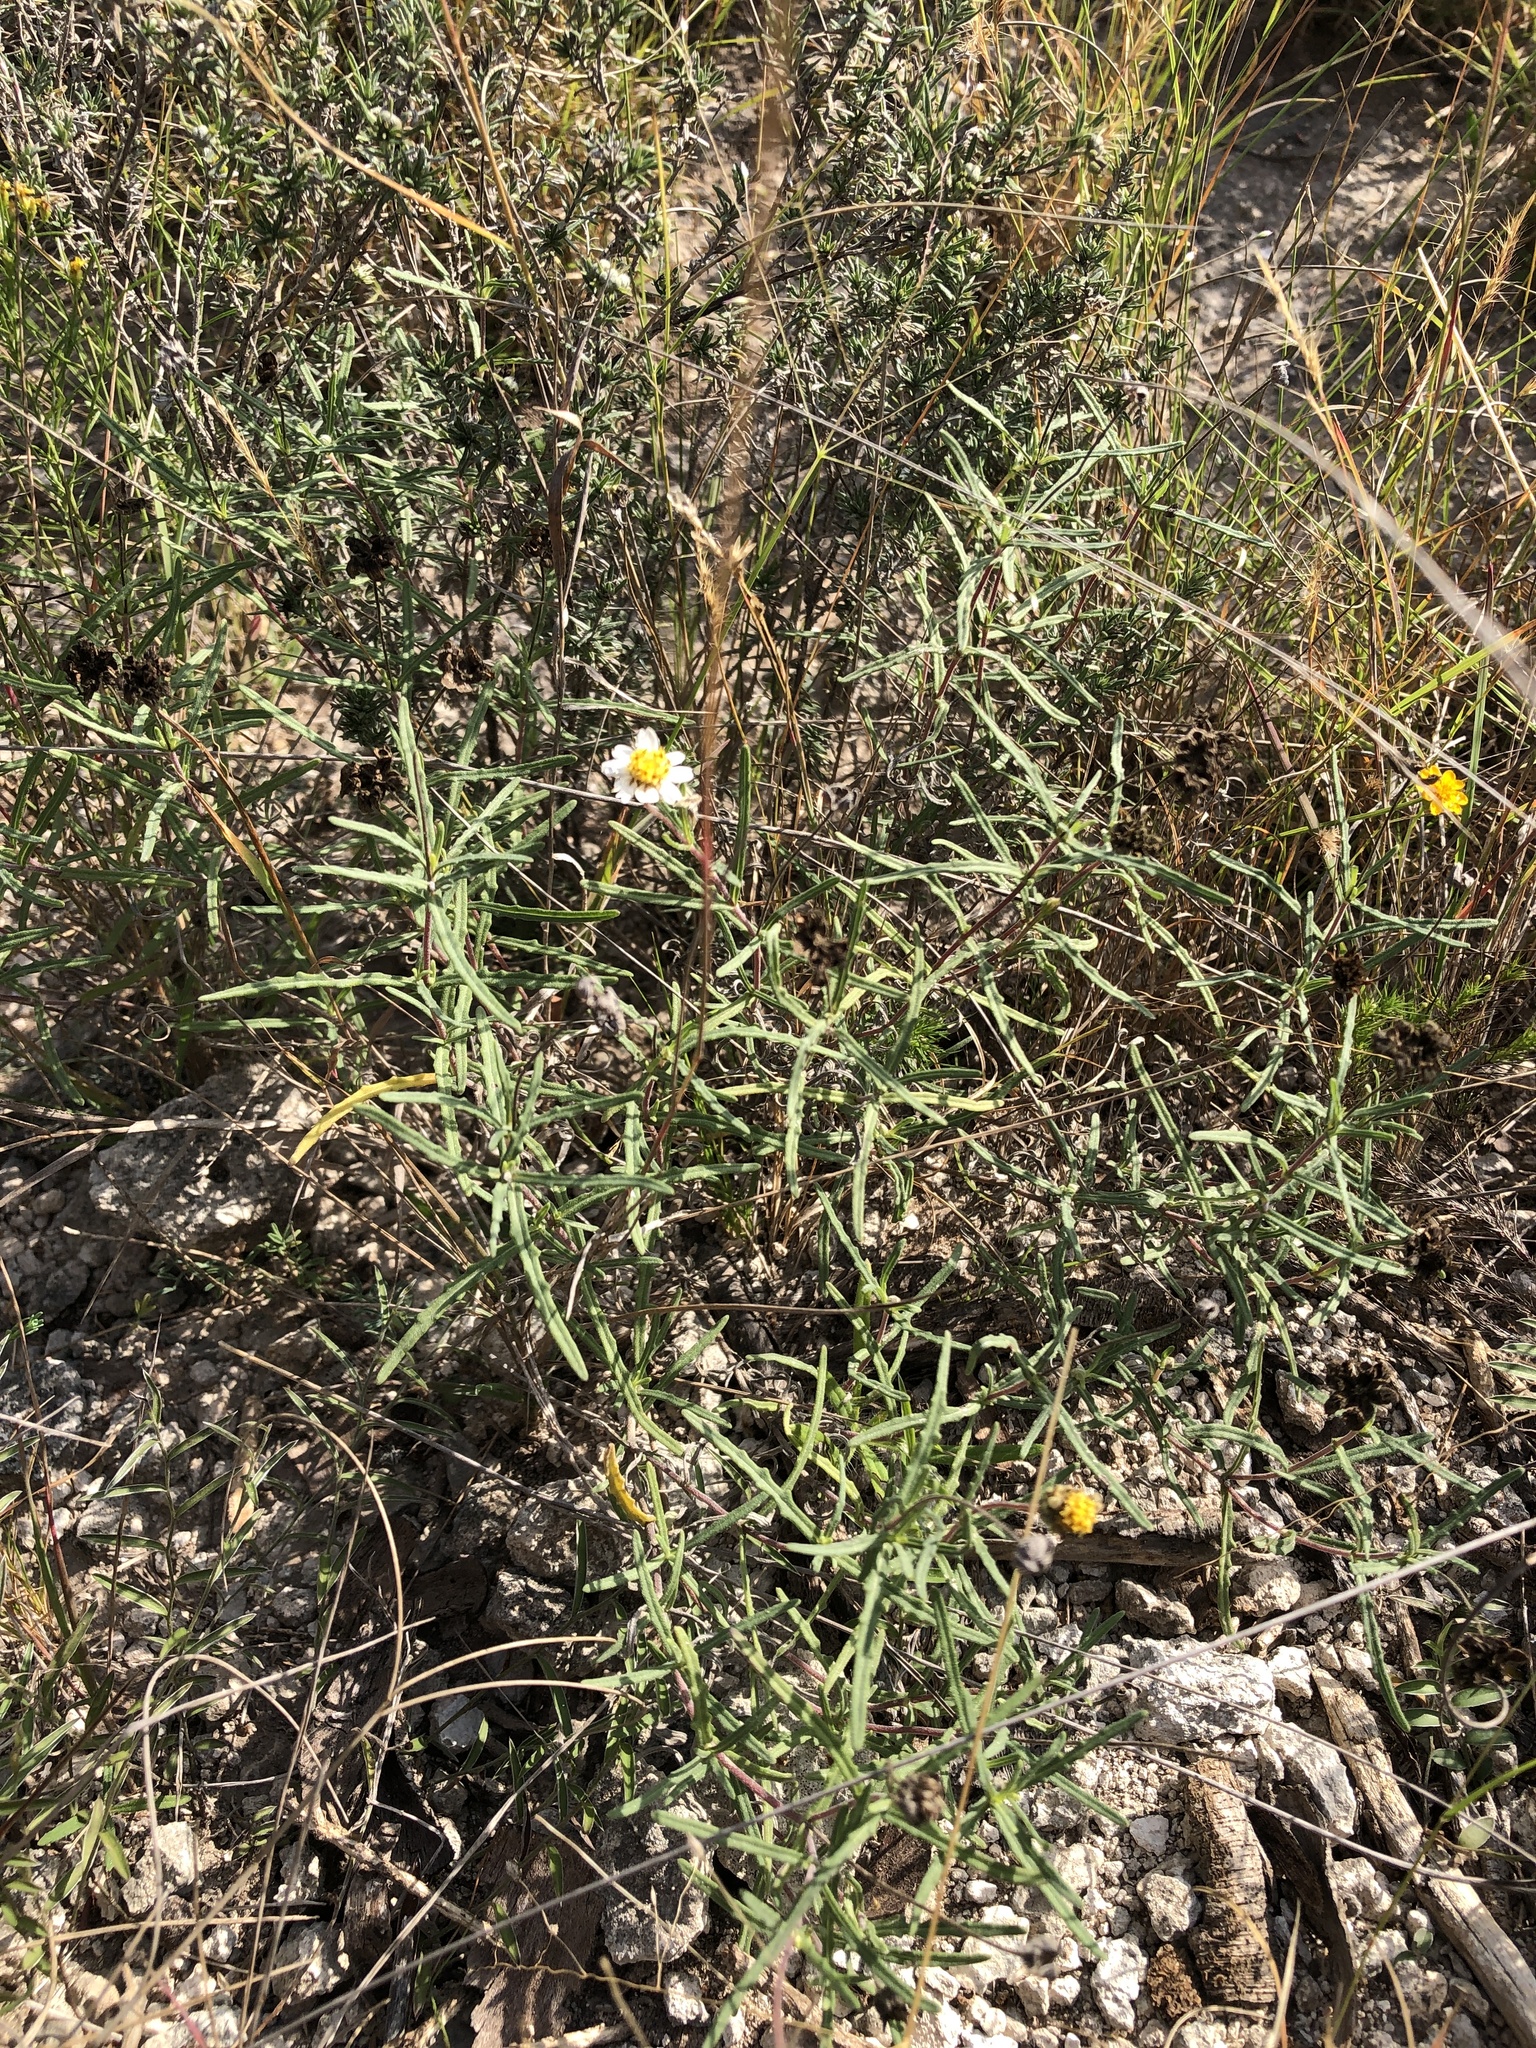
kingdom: Plantae
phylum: Tracheophyta
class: Magnoliopsida
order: Asterales
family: Asteraceae
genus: Melampodium
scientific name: Melampodium cinereum
